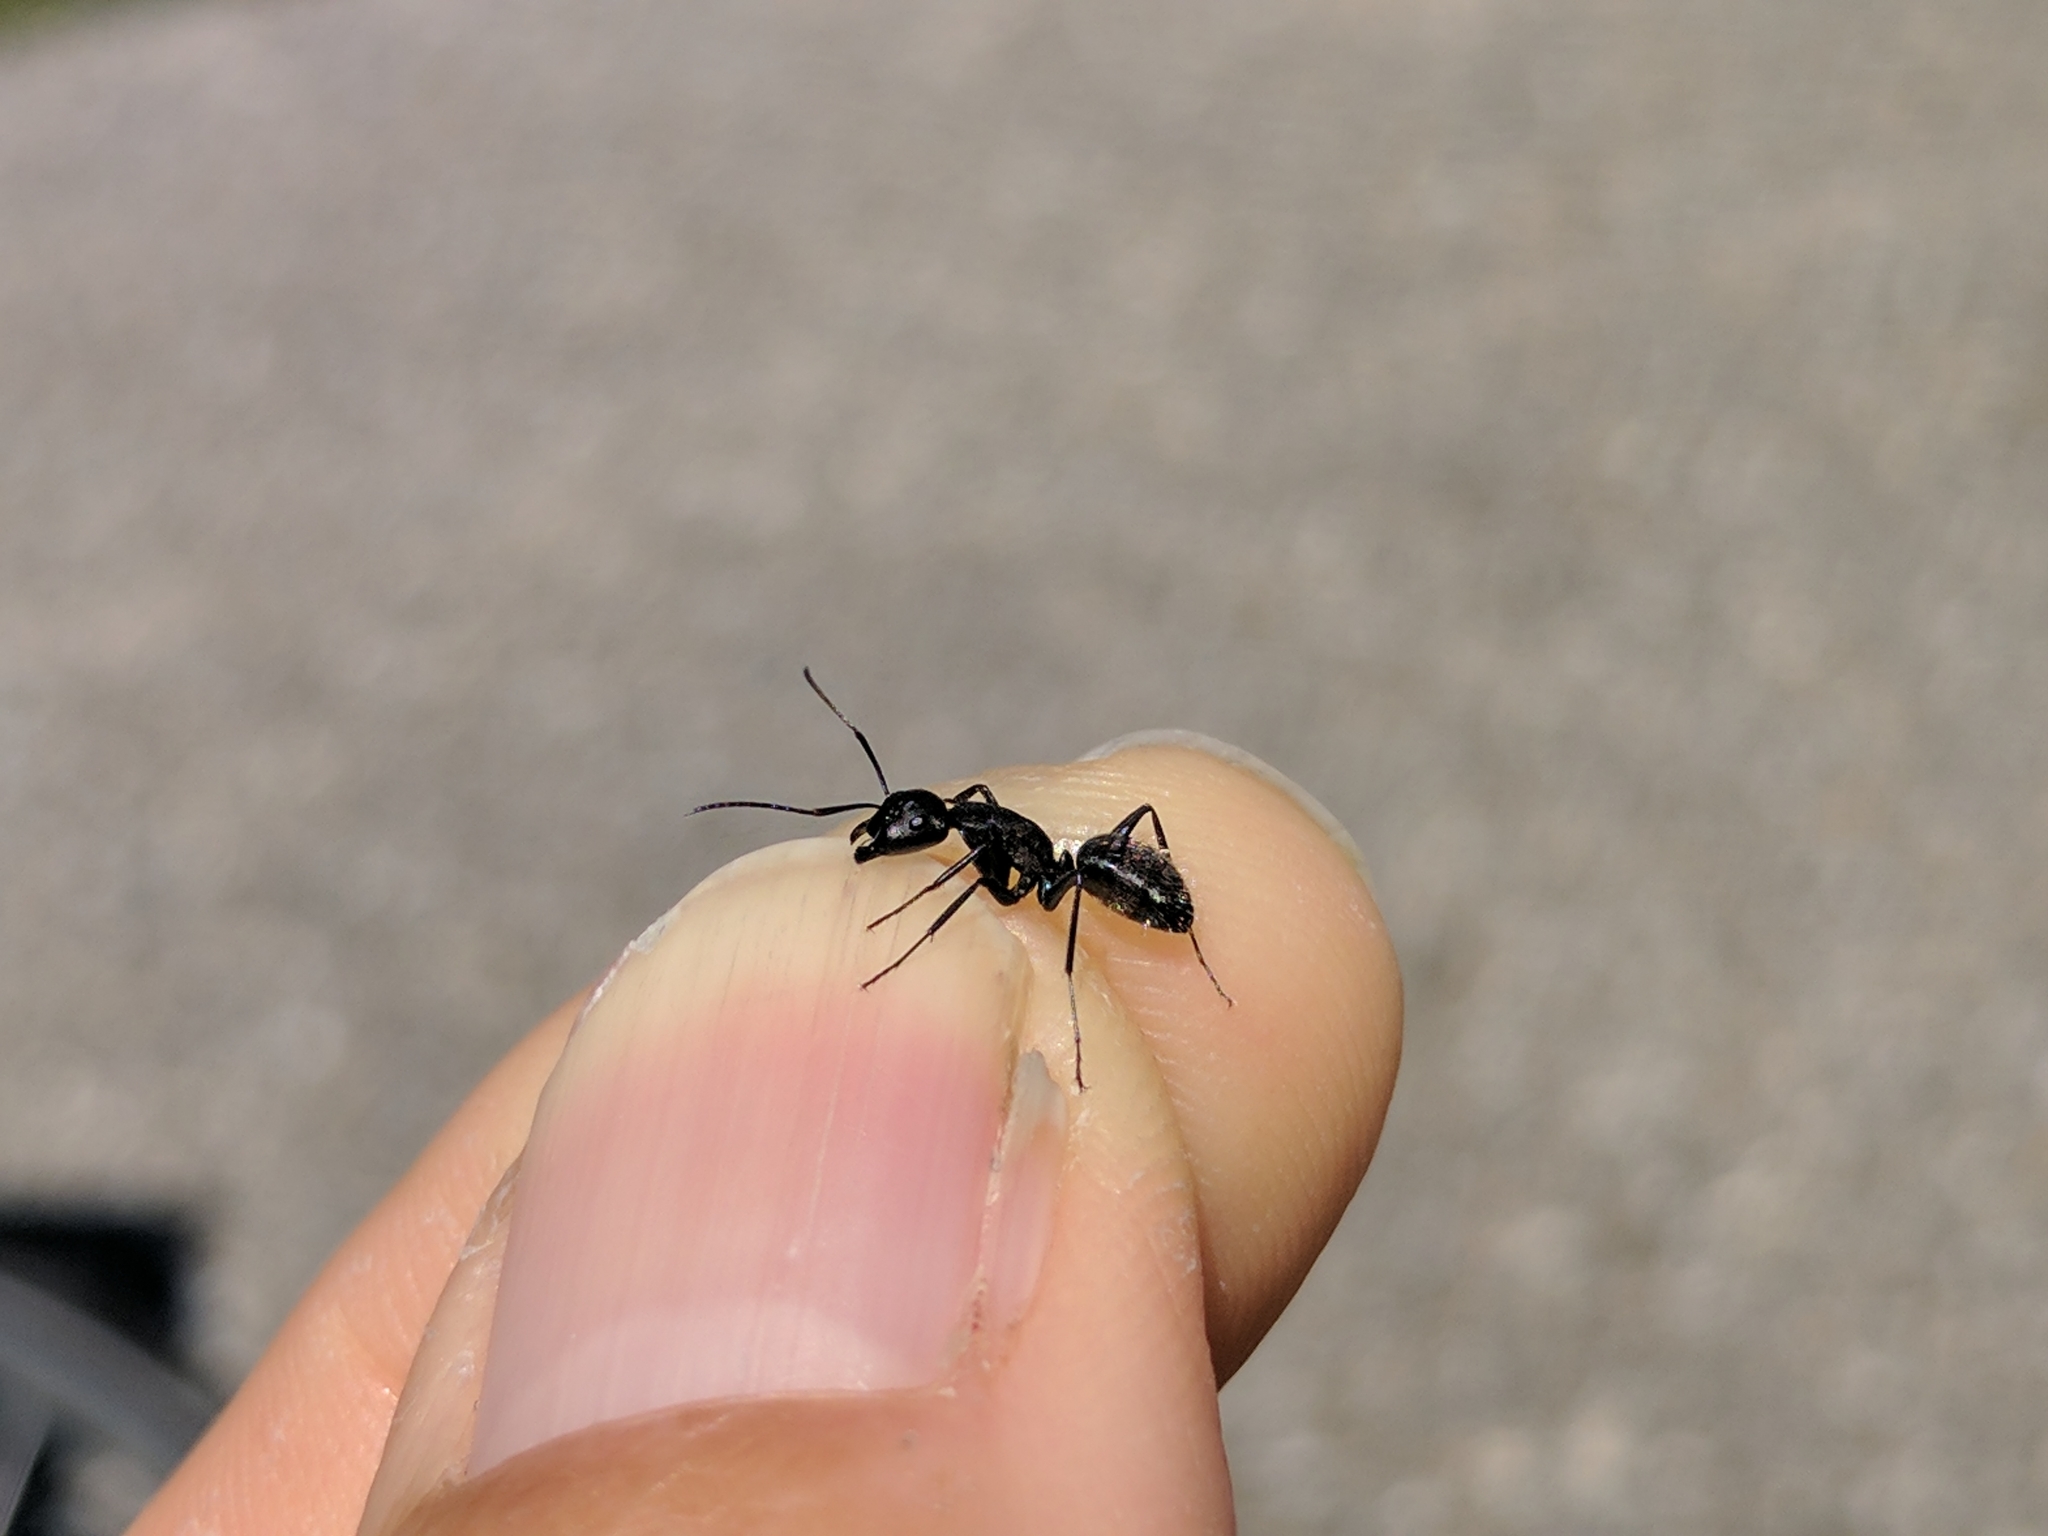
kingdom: Animalia
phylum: Arthropoda
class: Insecta
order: Hymenoptera
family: Formicidae
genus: Camponotus
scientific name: Camponotus vagus
